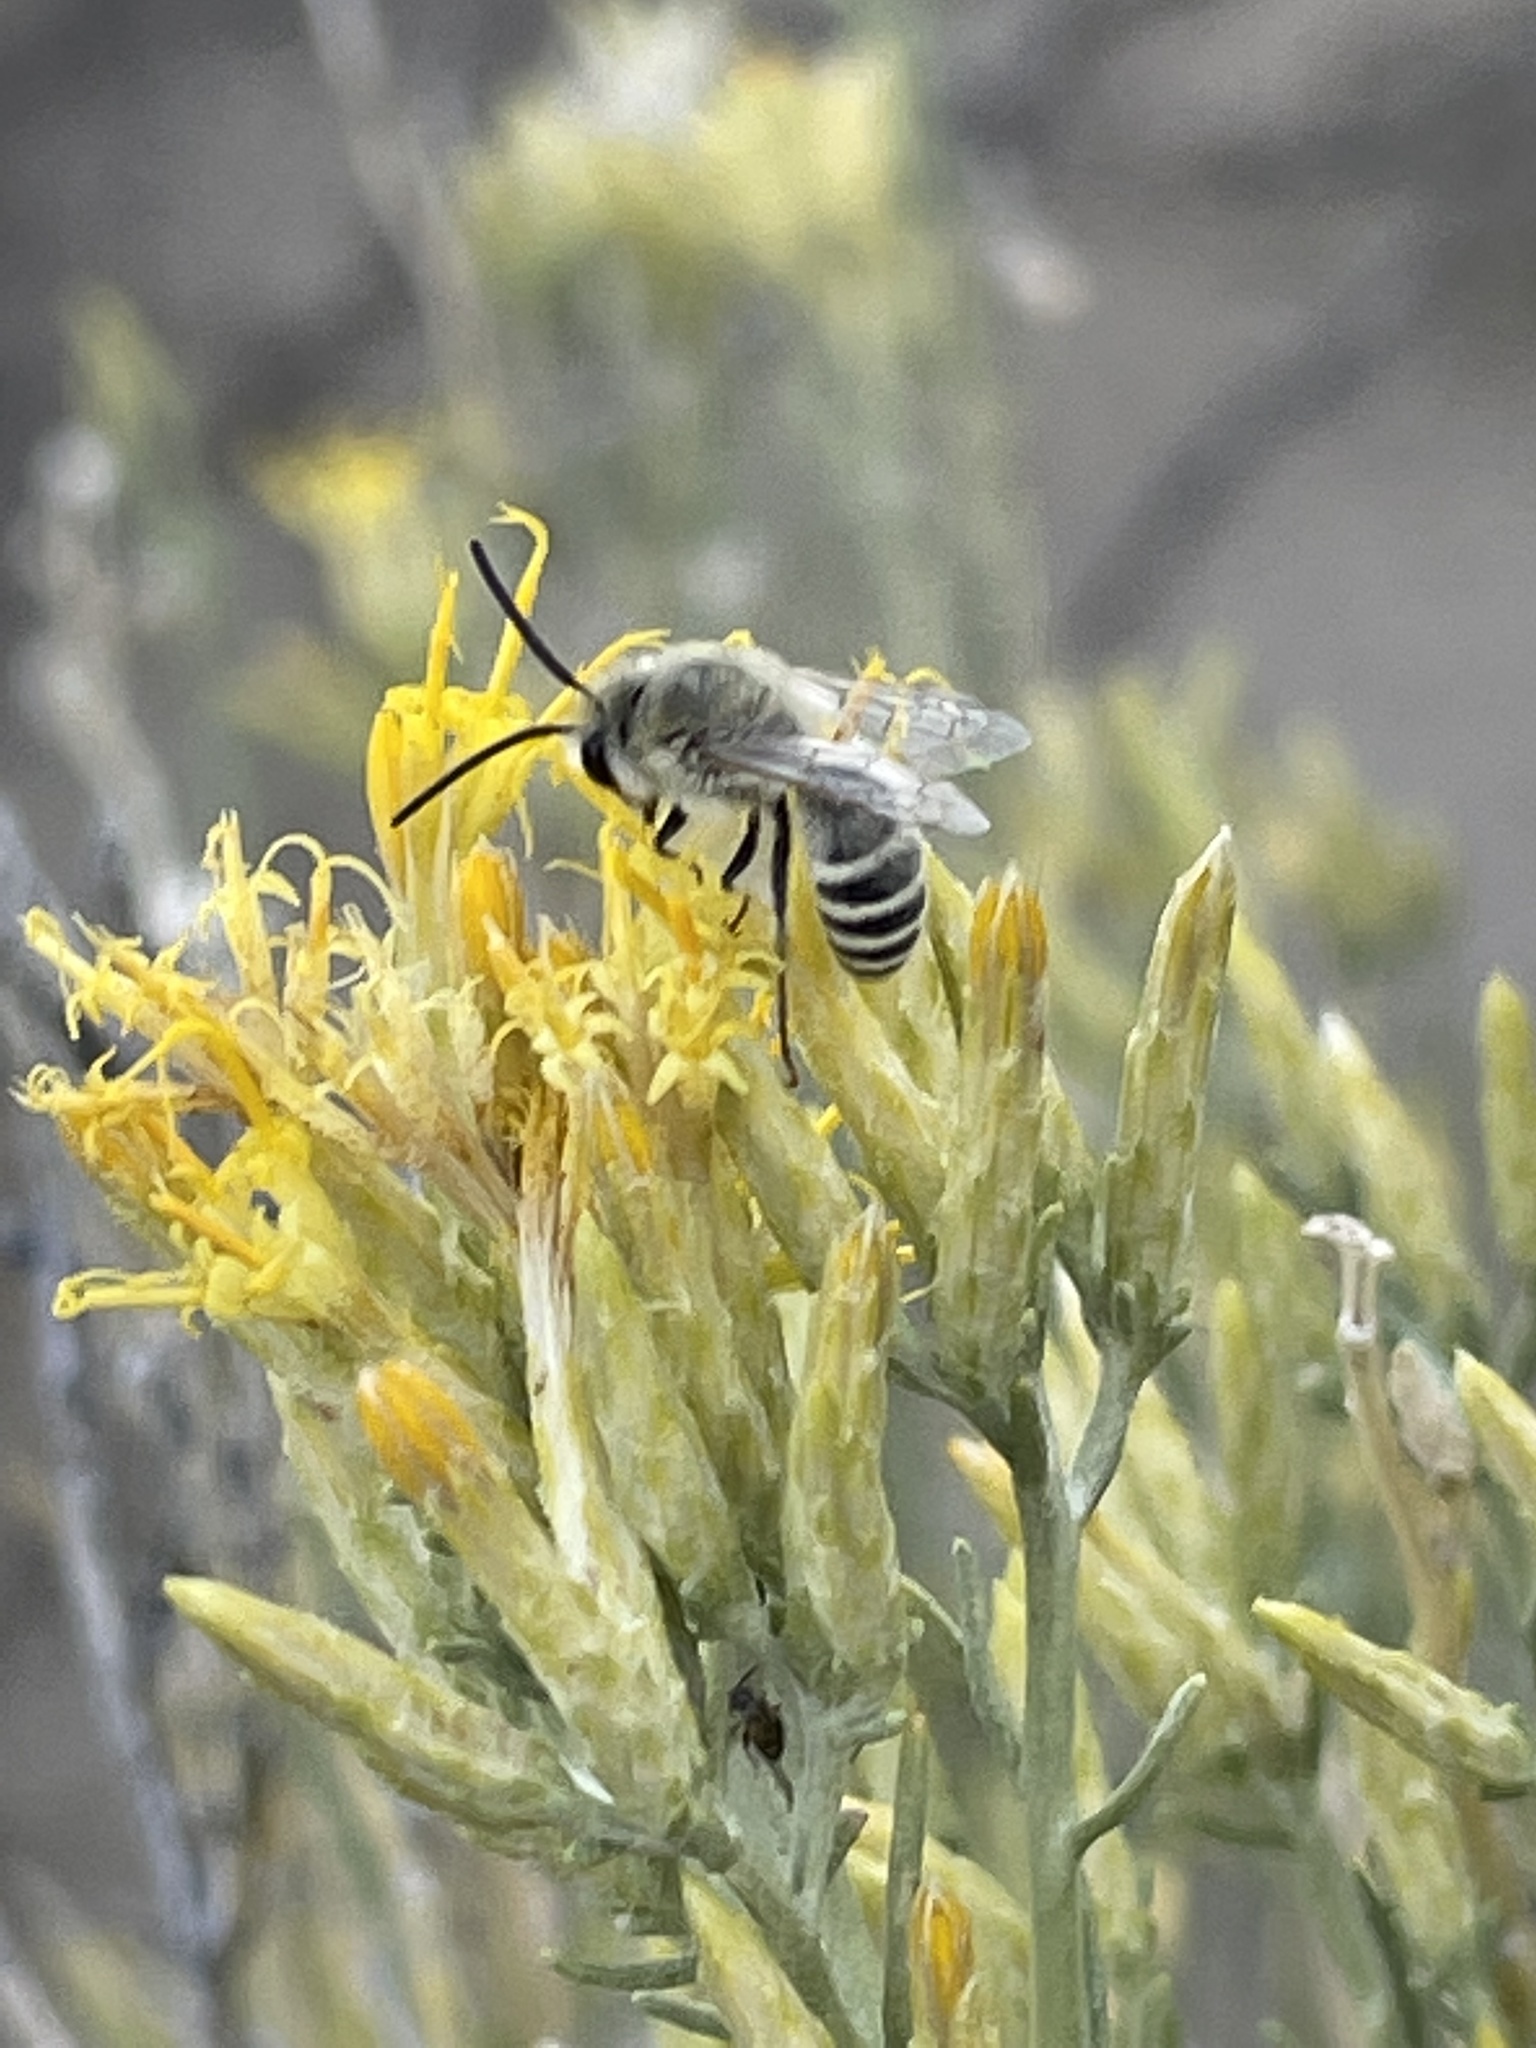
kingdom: Animalia
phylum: Arthropoda
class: Insecta
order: Hymenoptera
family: Colletidae
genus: Colletes
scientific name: Colletes
